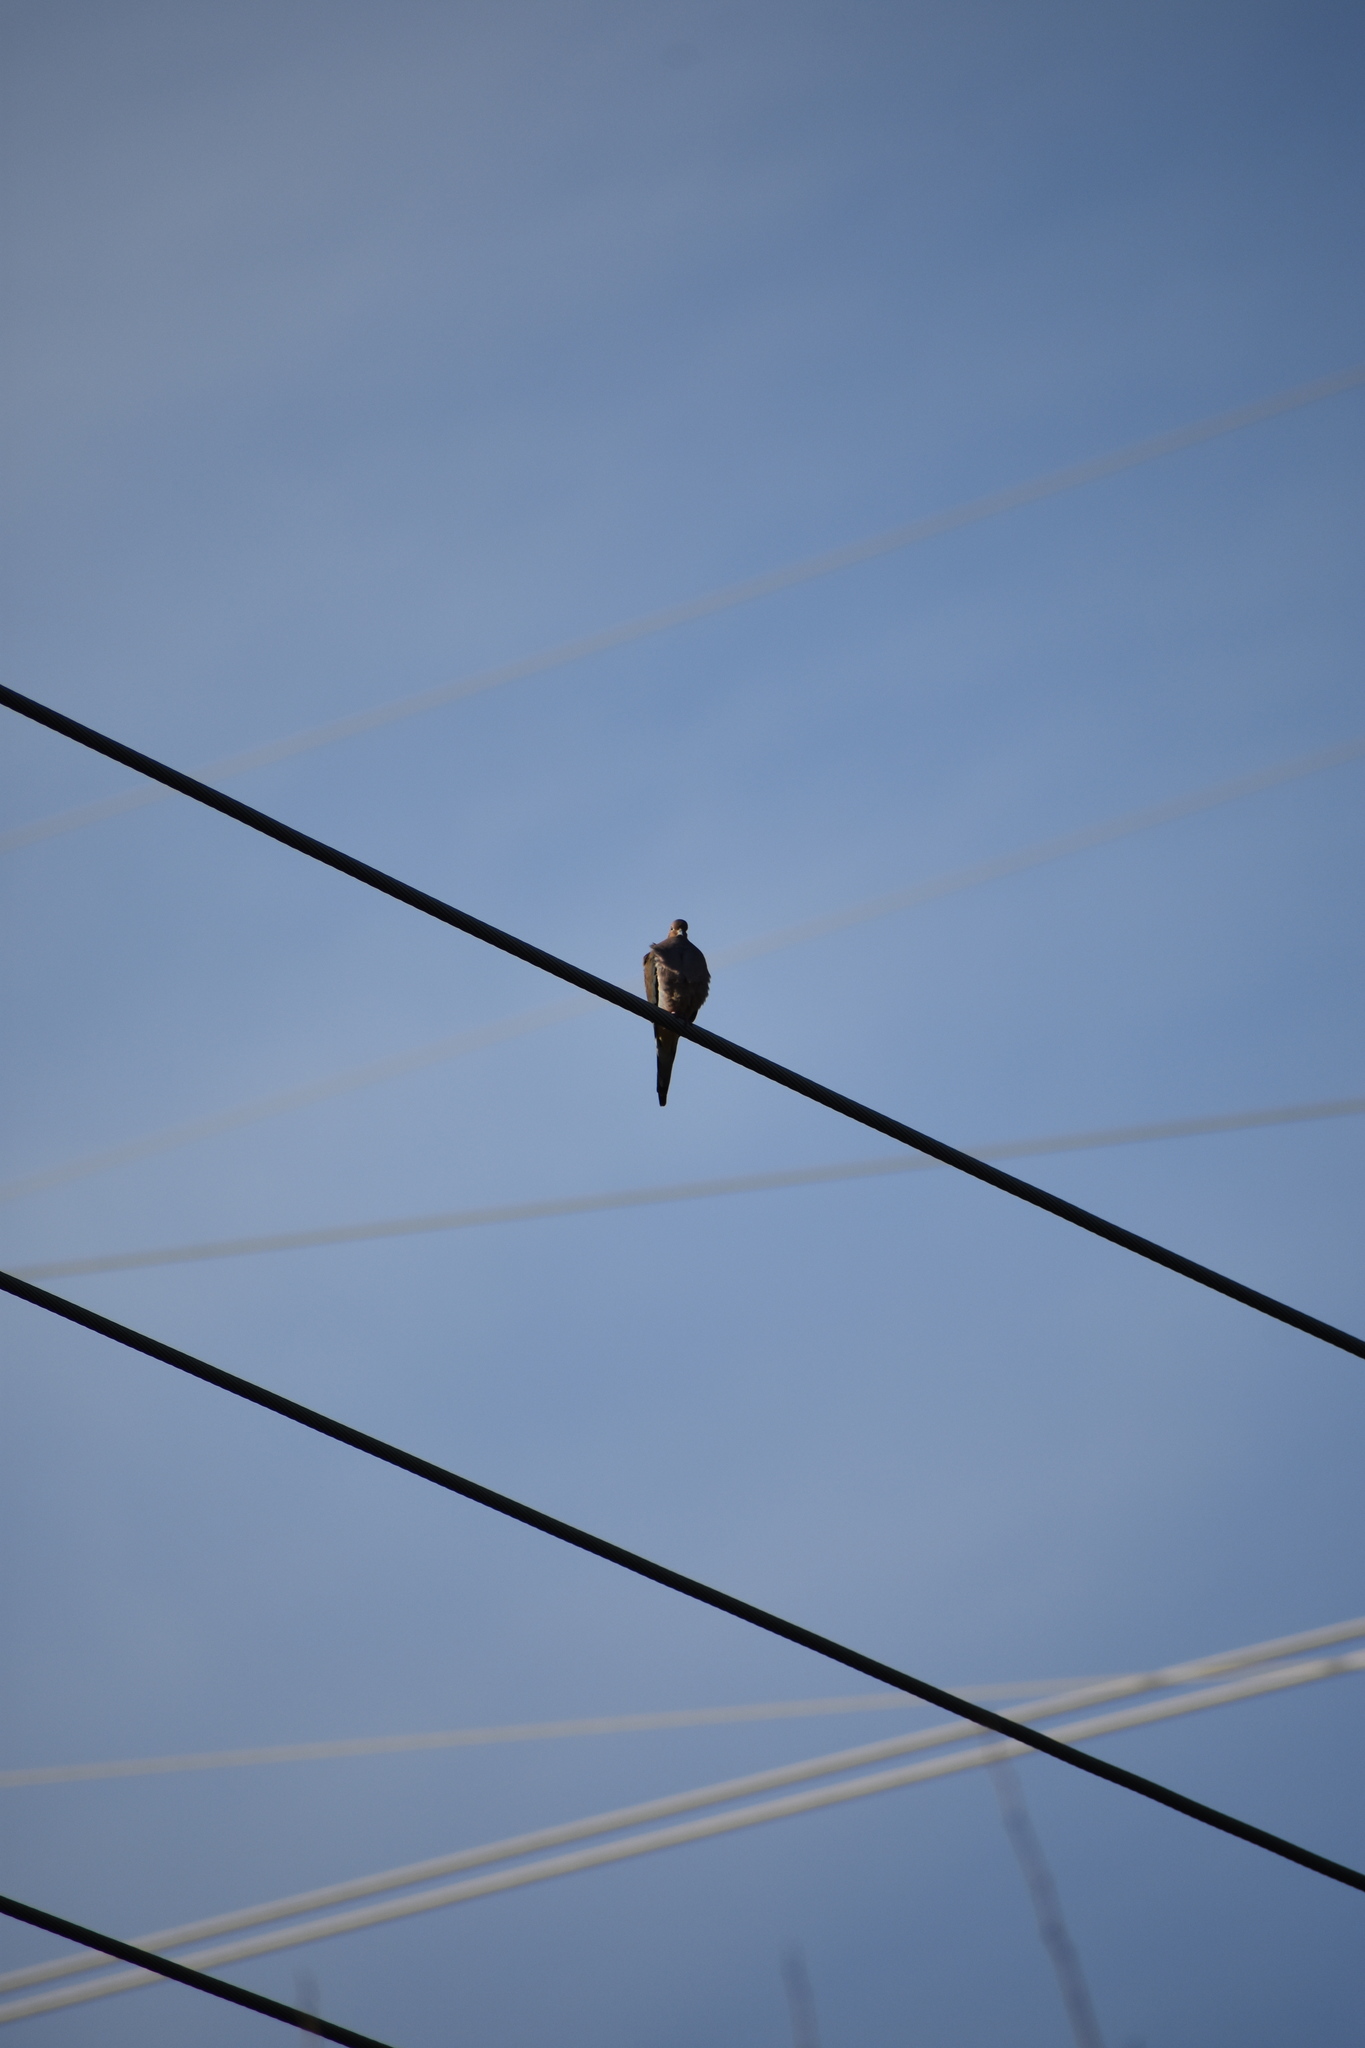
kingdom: Animalia
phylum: Chordata
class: Aves
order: Columbiformes
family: Columbidae
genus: Zenaida
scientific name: Zenaida macroura
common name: Mourning dove
